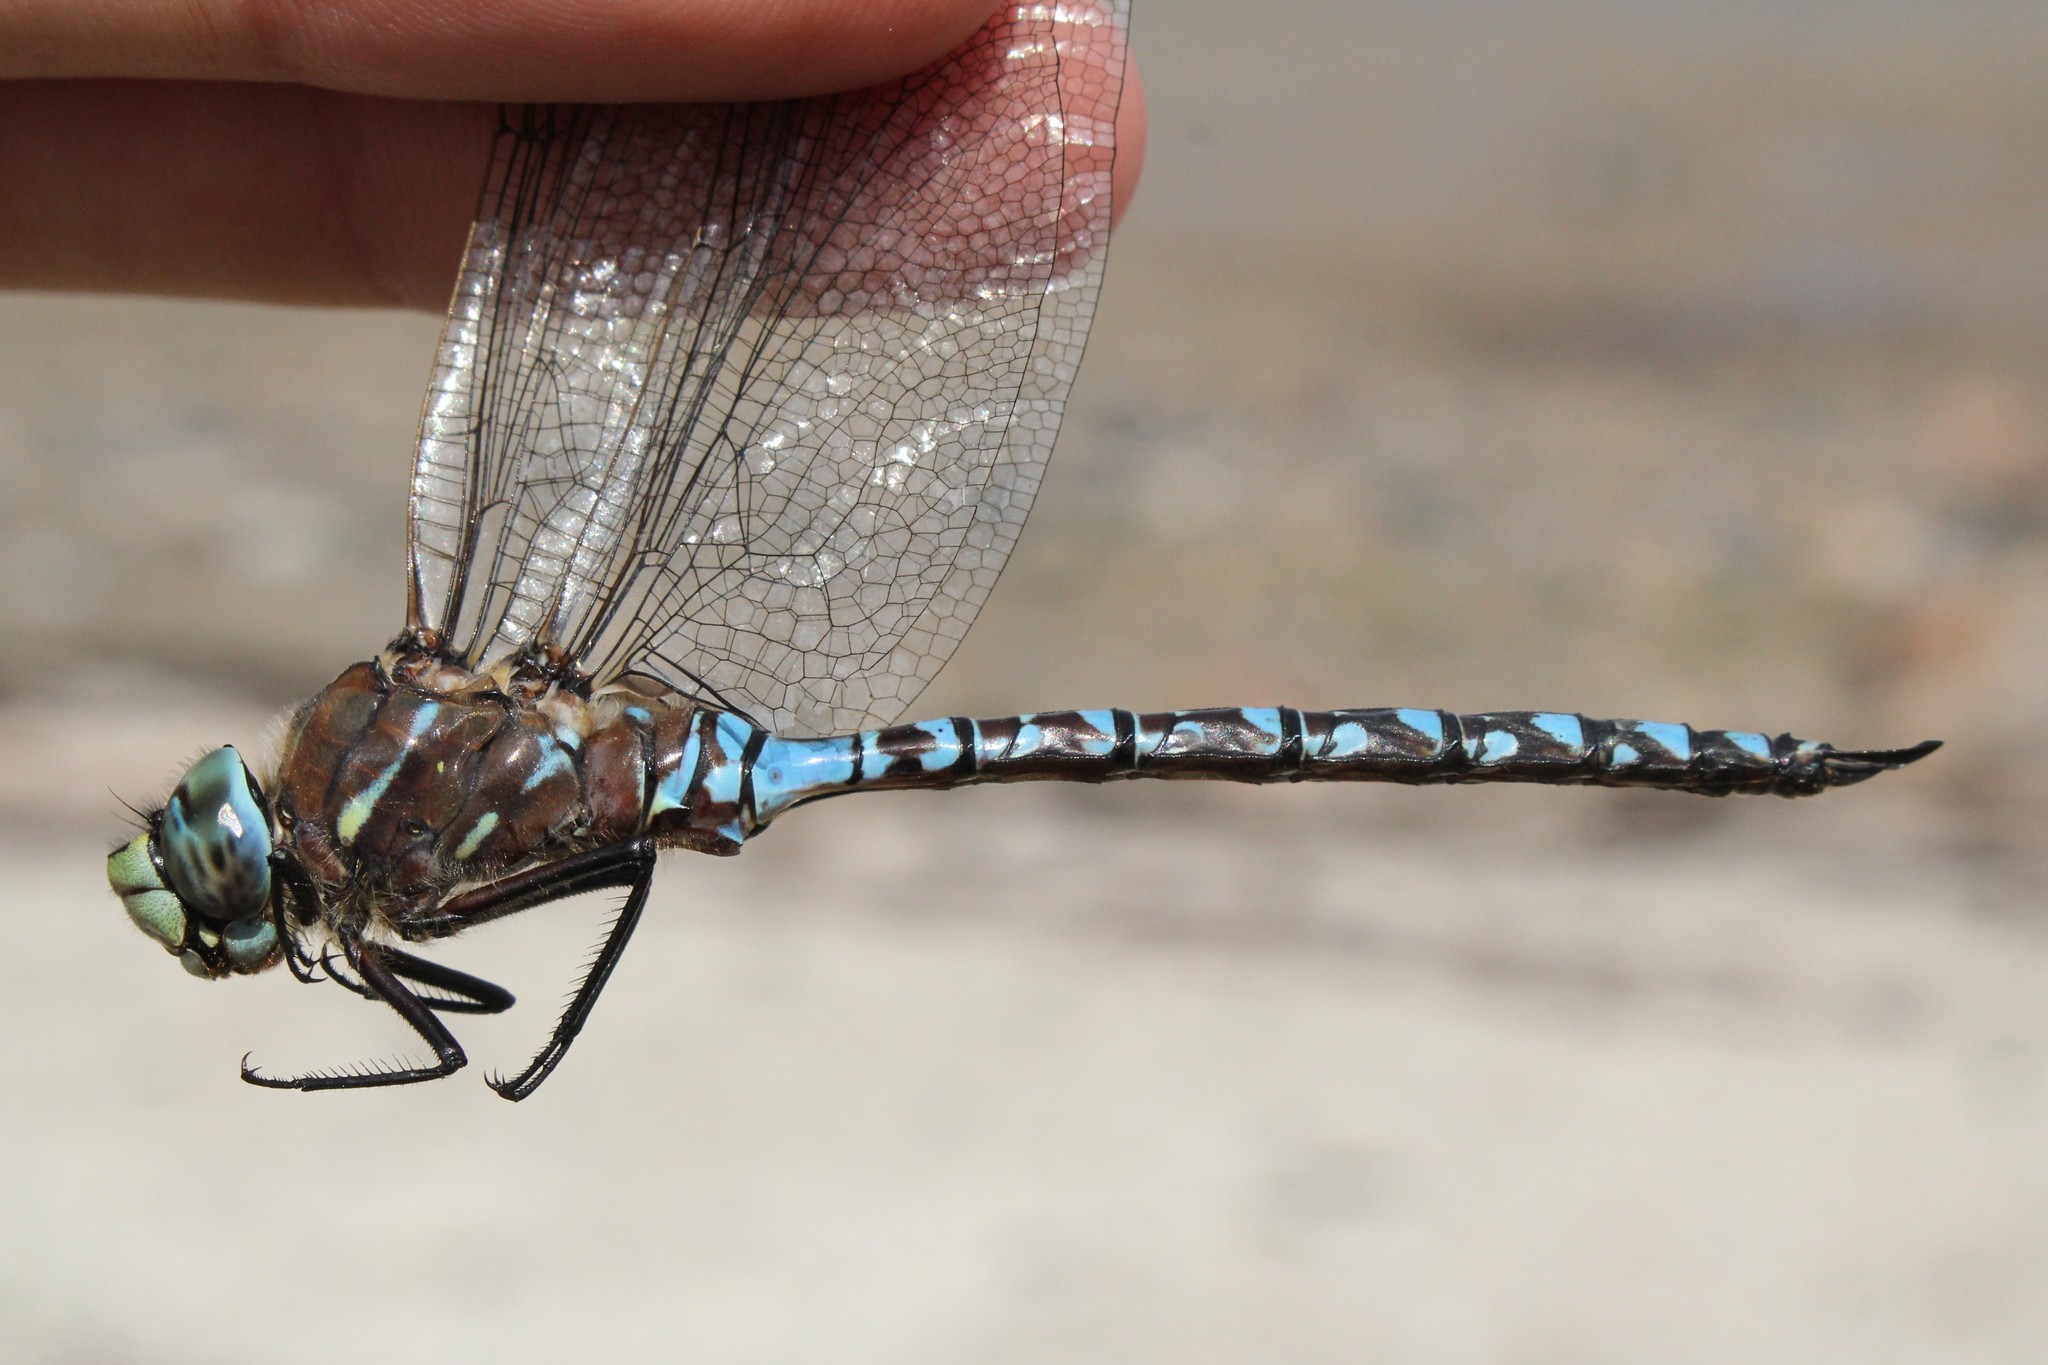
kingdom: Animalia
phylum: Arthropoda
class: Insecta
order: Odonata
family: Aeshnidae
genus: Aeshna
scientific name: Aeshna interrupta
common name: Variable darner
